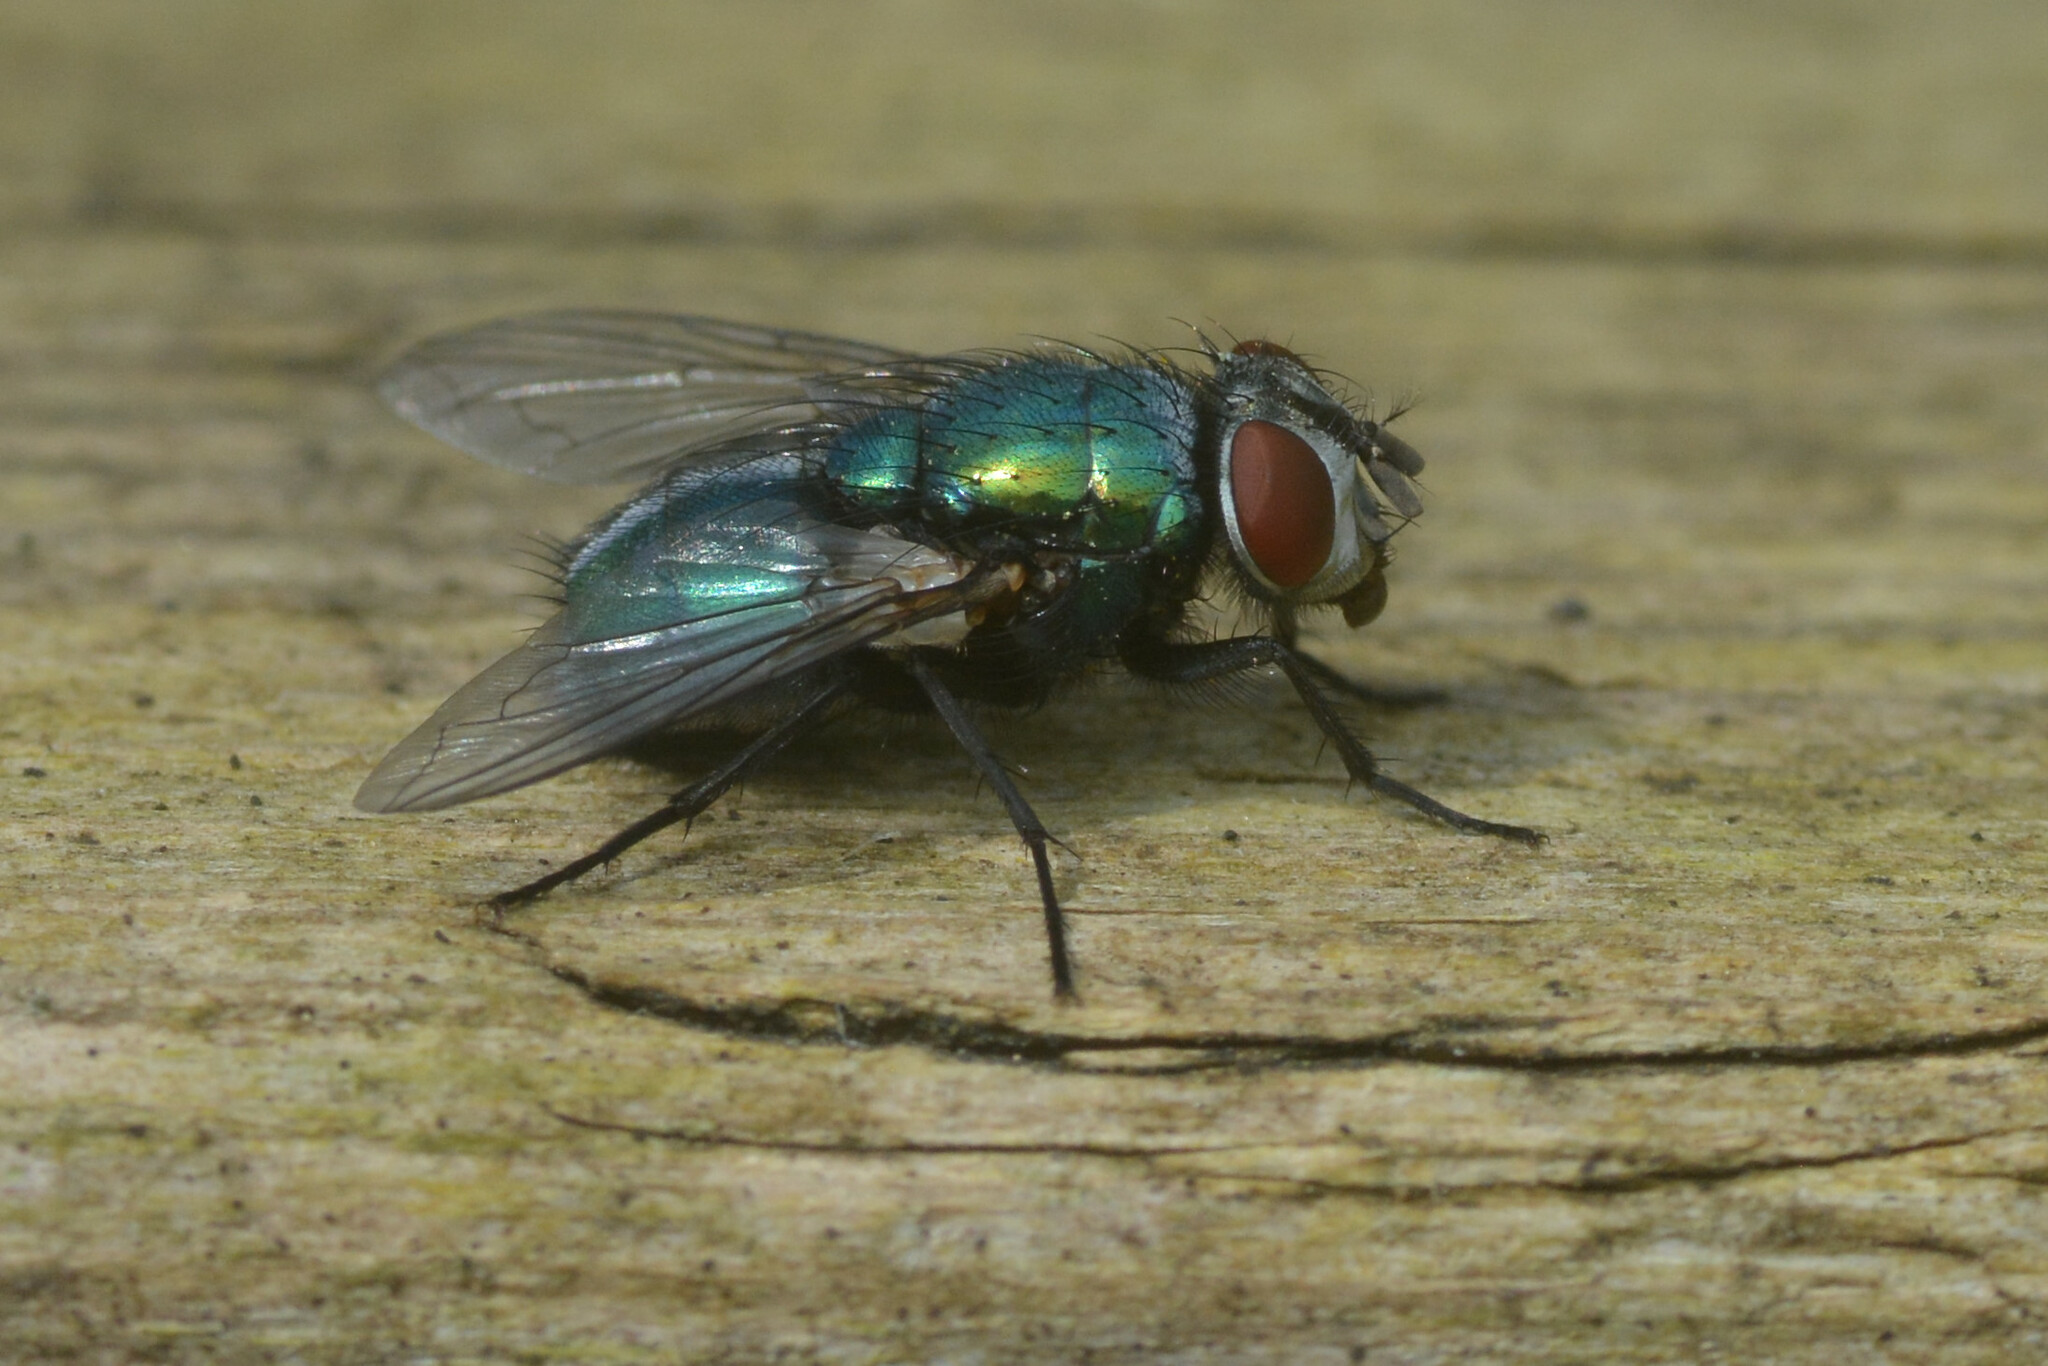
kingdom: Animalia
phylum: Arthropoda
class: Insecta
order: Diptera
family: Calliphoridae
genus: Lucilia
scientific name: Lucilia sericata
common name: Blow fly
